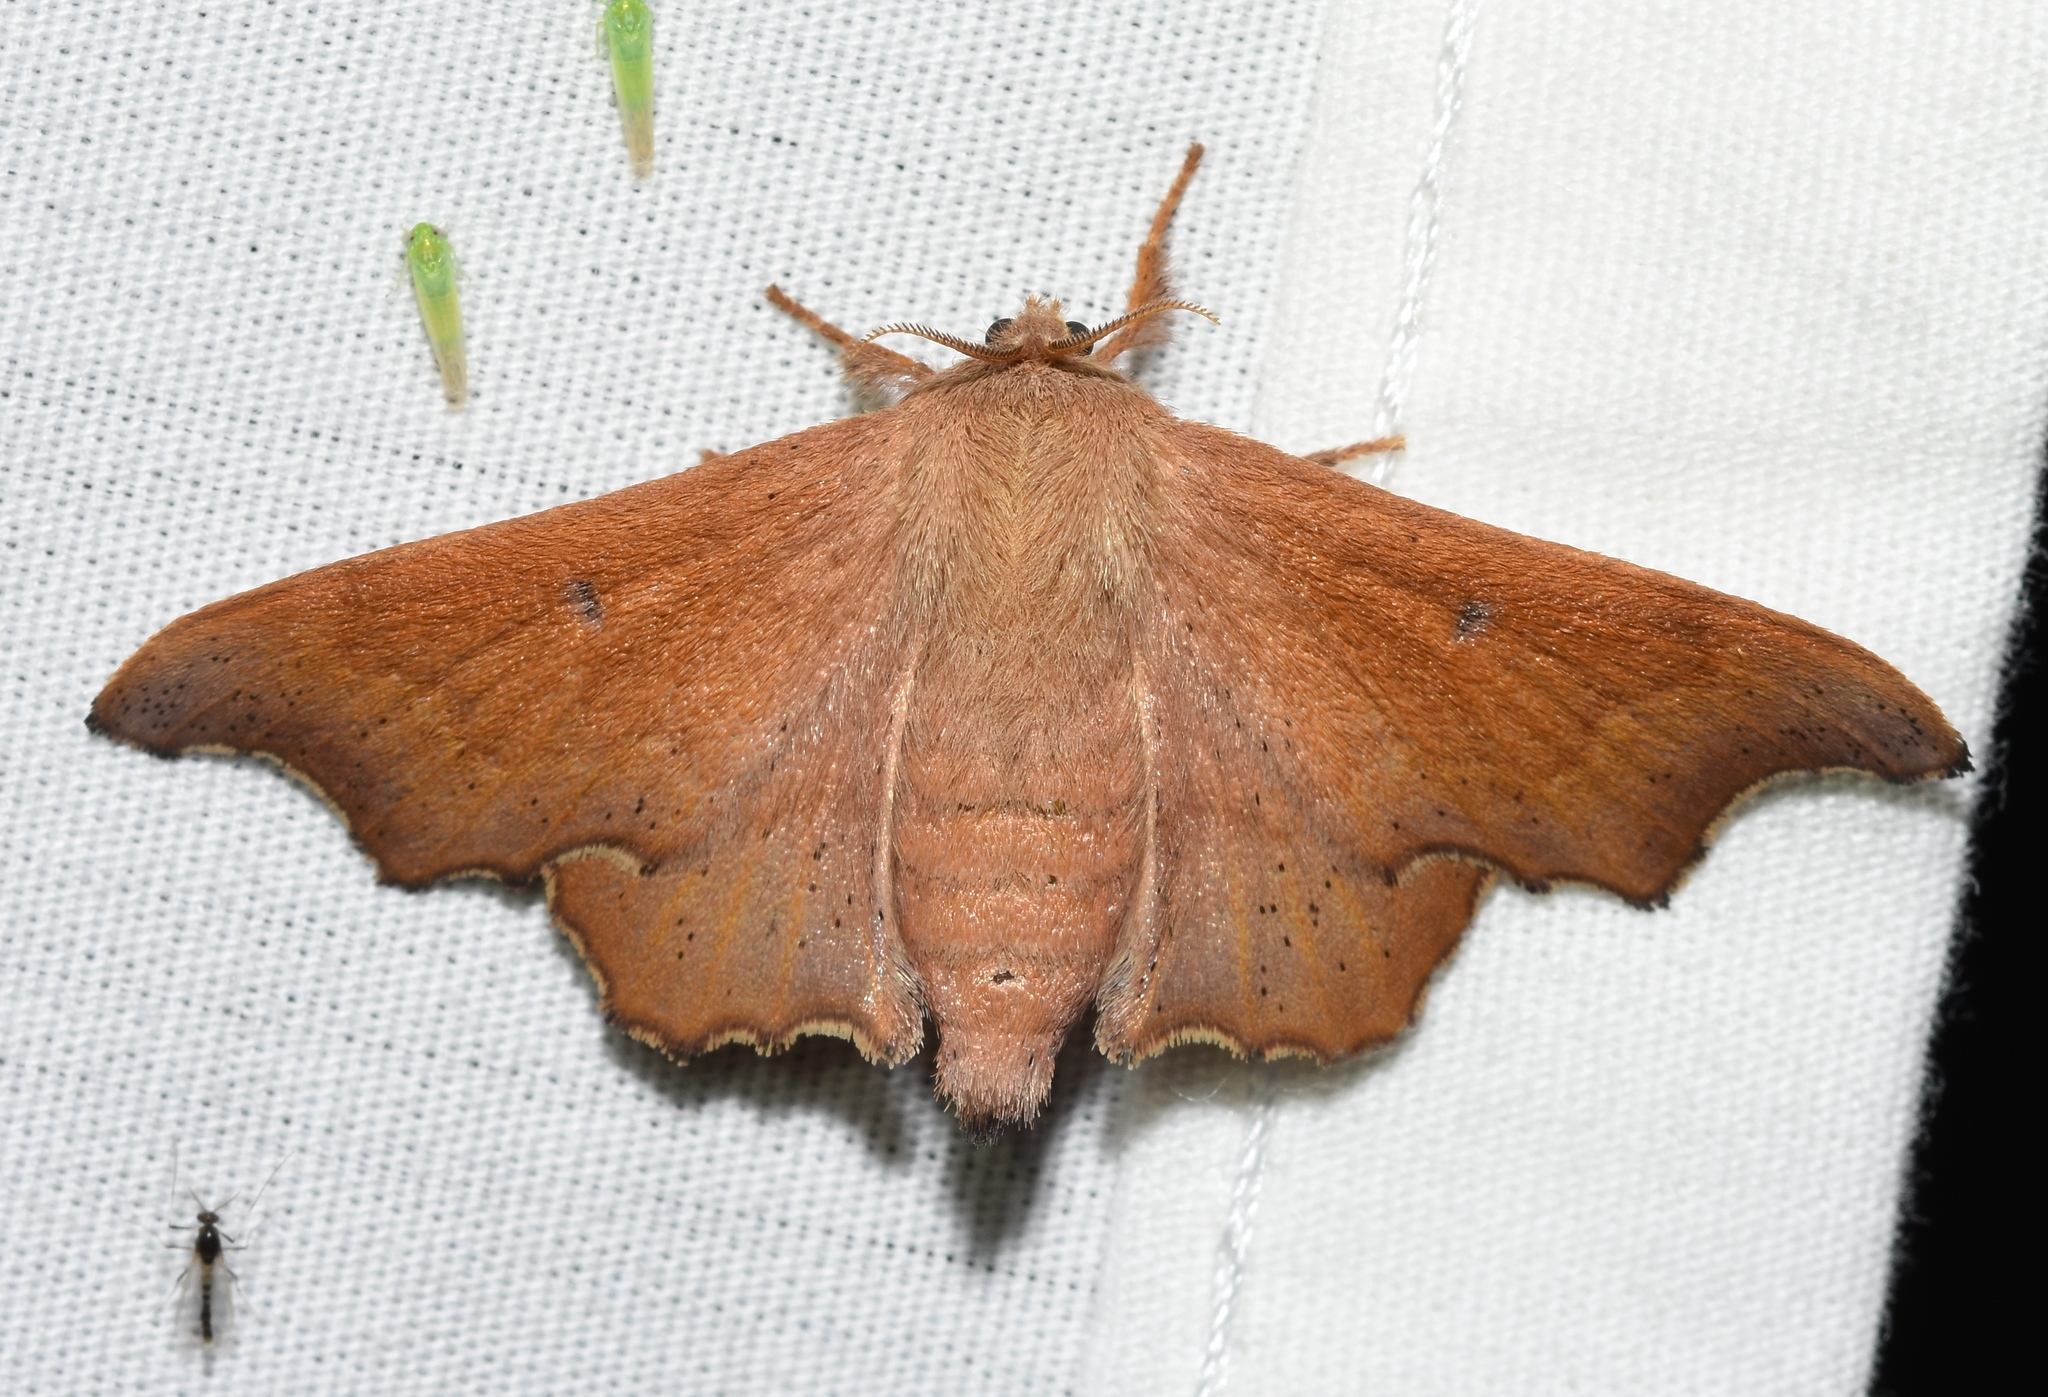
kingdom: Animalia
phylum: Arthropoda
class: Insecta
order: Lepidoptera
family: Mimallonidae
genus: Lacosoma
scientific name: Lacosoma chiridota
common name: Scalloped sack-bearer moth
